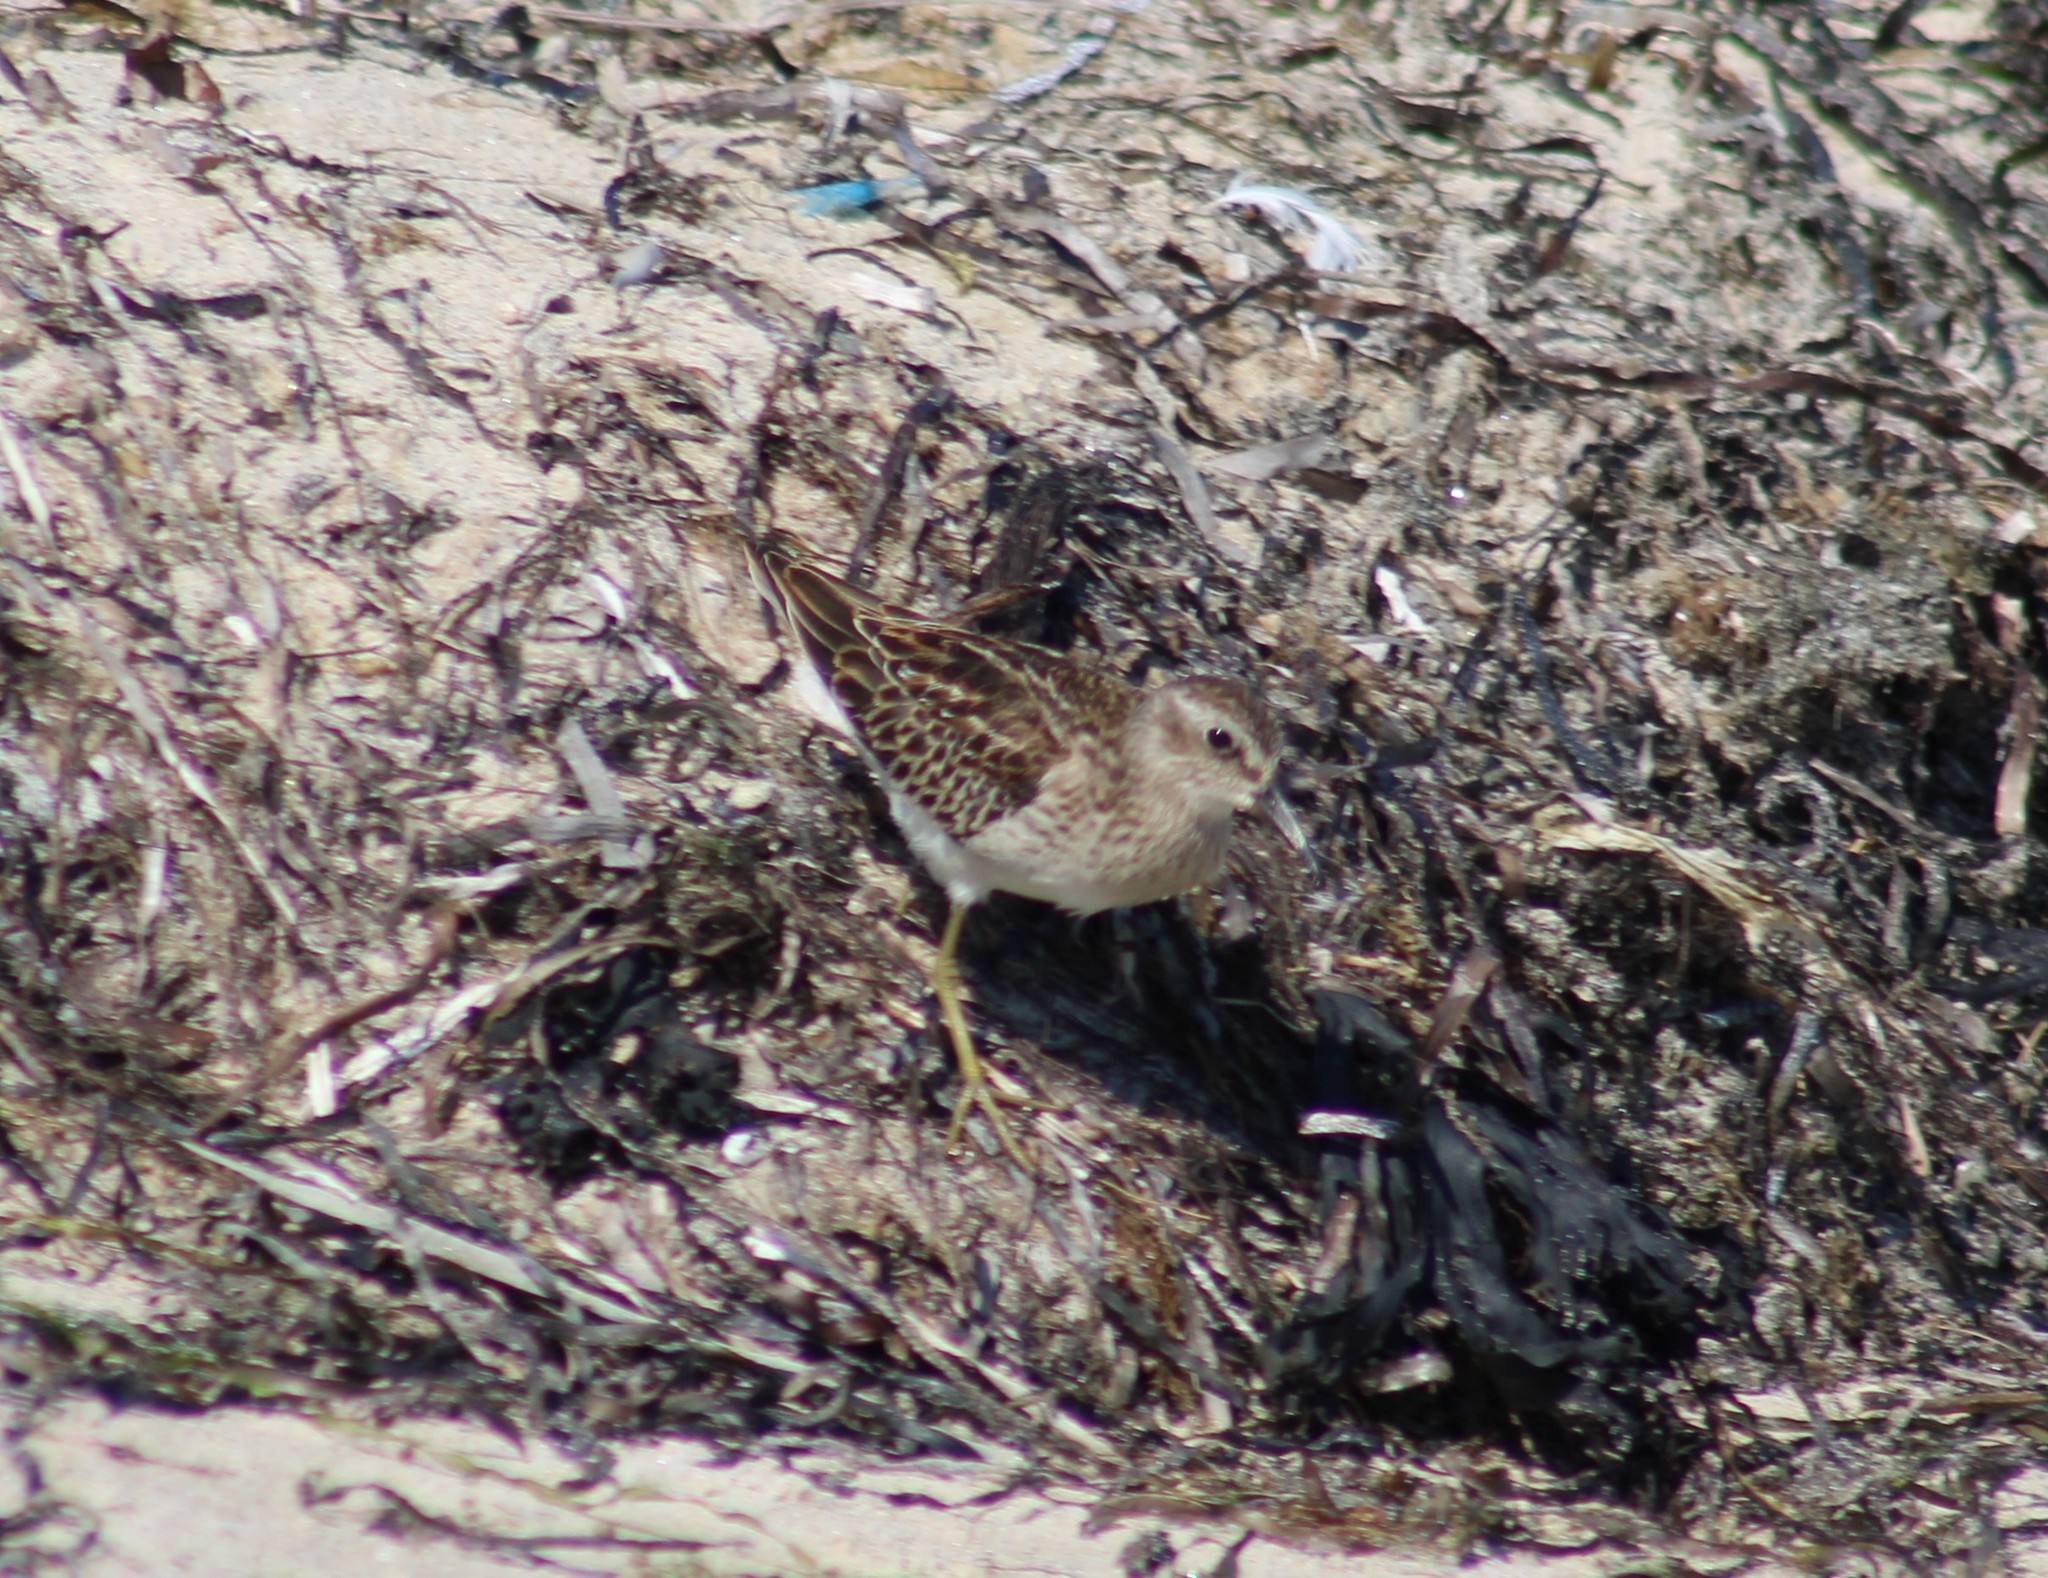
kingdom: Animalia
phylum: Chordata
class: Aves
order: Charadriiformes
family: Scolopacidae
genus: Calidris
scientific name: Calidris minutilla
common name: Least sandpiper
